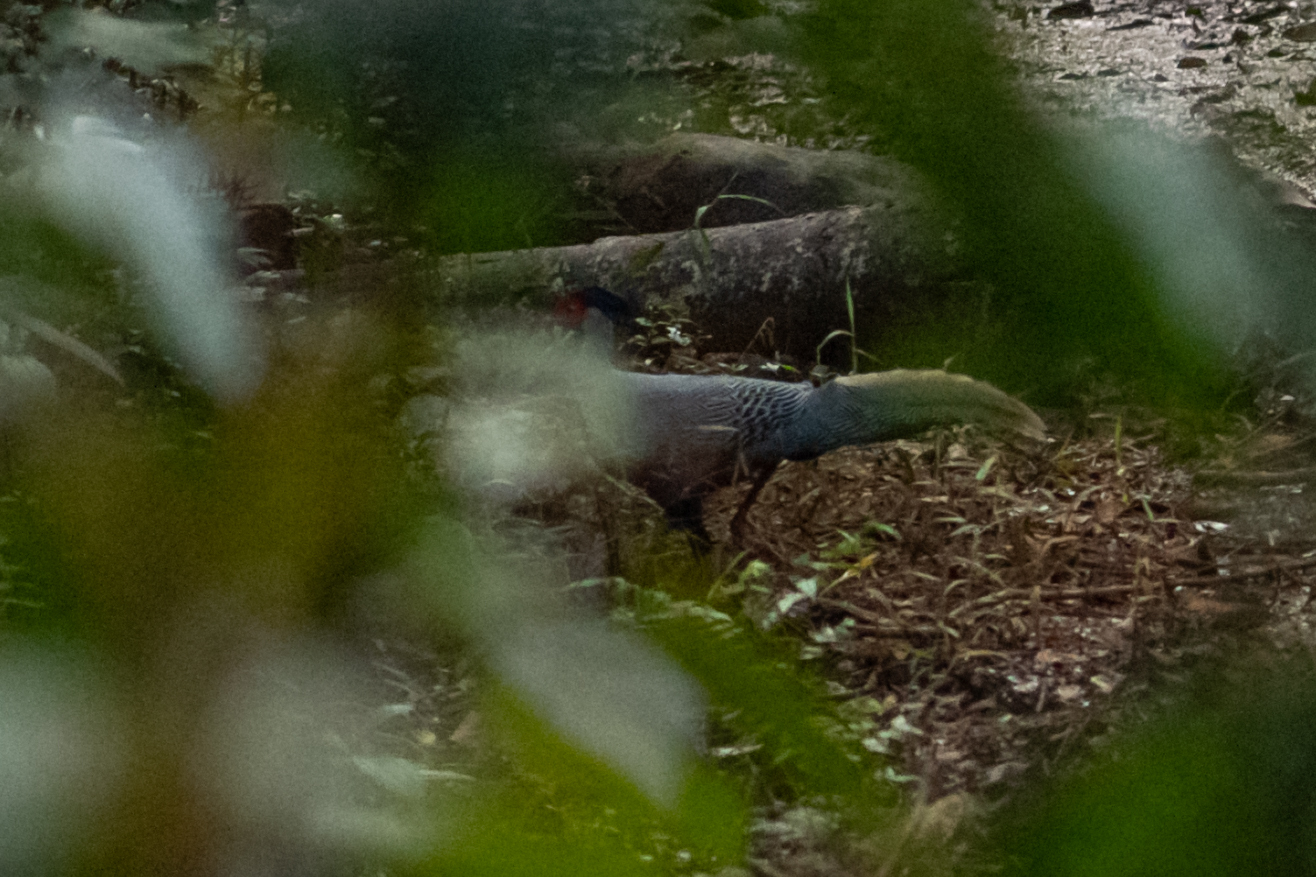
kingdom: Animalia
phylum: Chordata
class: Aves
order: Galliformes
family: Phasianidae
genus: Lophura
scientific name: Lophura nycthemera
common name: Silver pheasant
